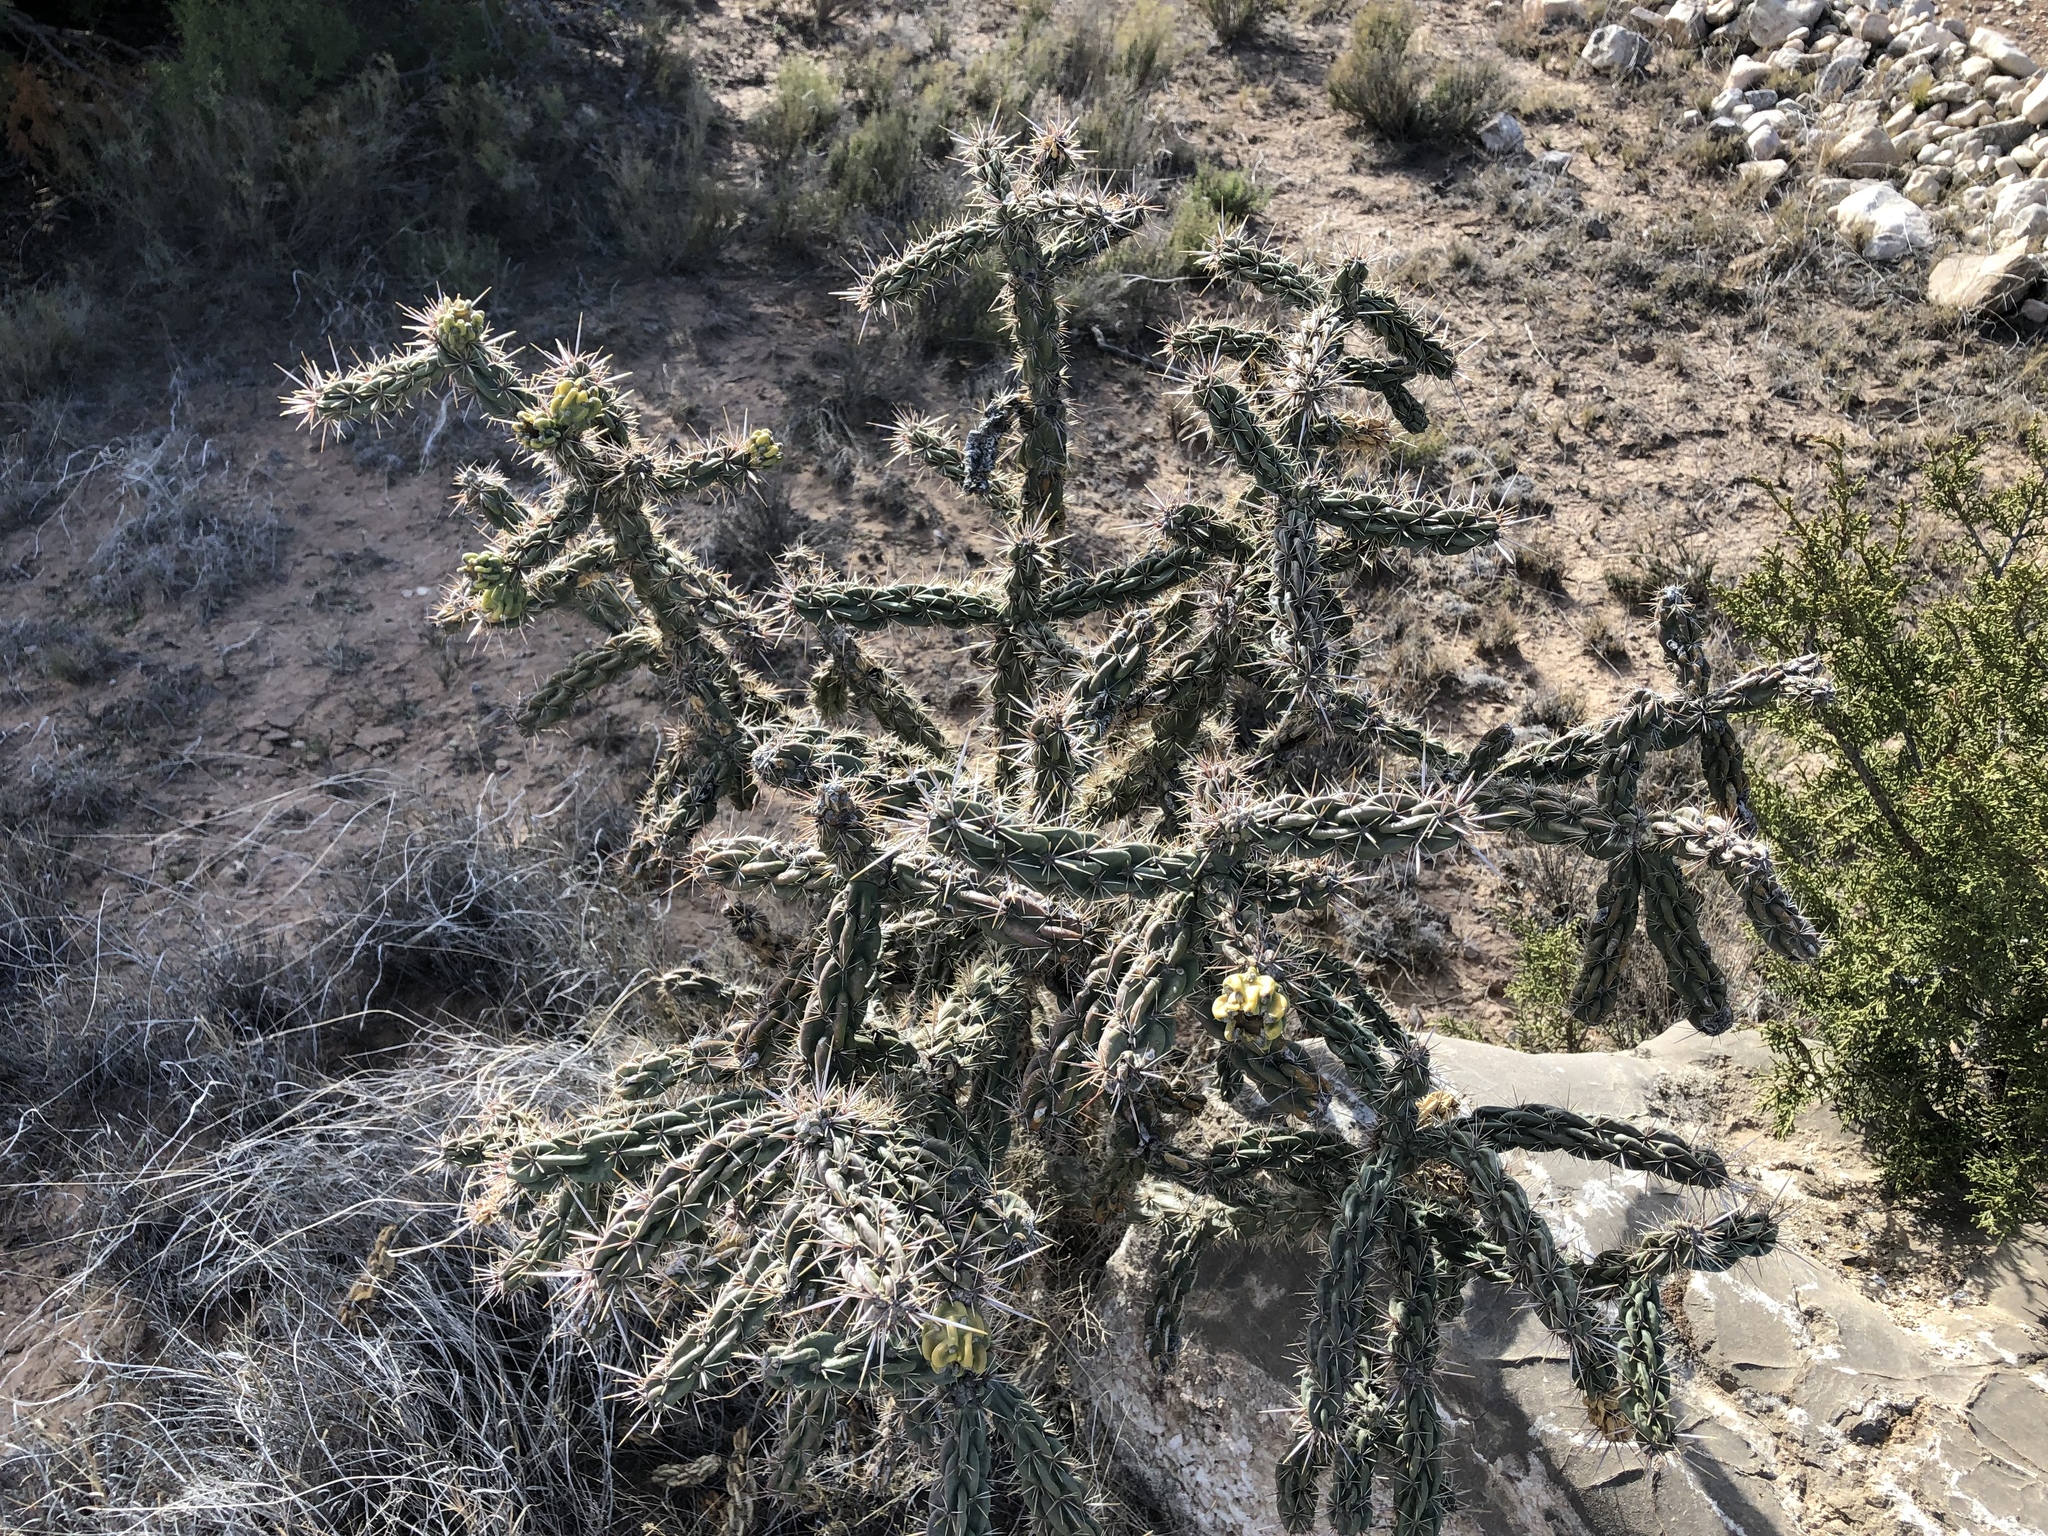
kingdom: Plantae
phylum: Tracheophyta
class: Magnoliopsida
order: Caryophyllales
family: Cactaceae
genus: Cylindropuntia
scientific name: Cylindropuntia imbricata
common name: Candelabrum cactus
